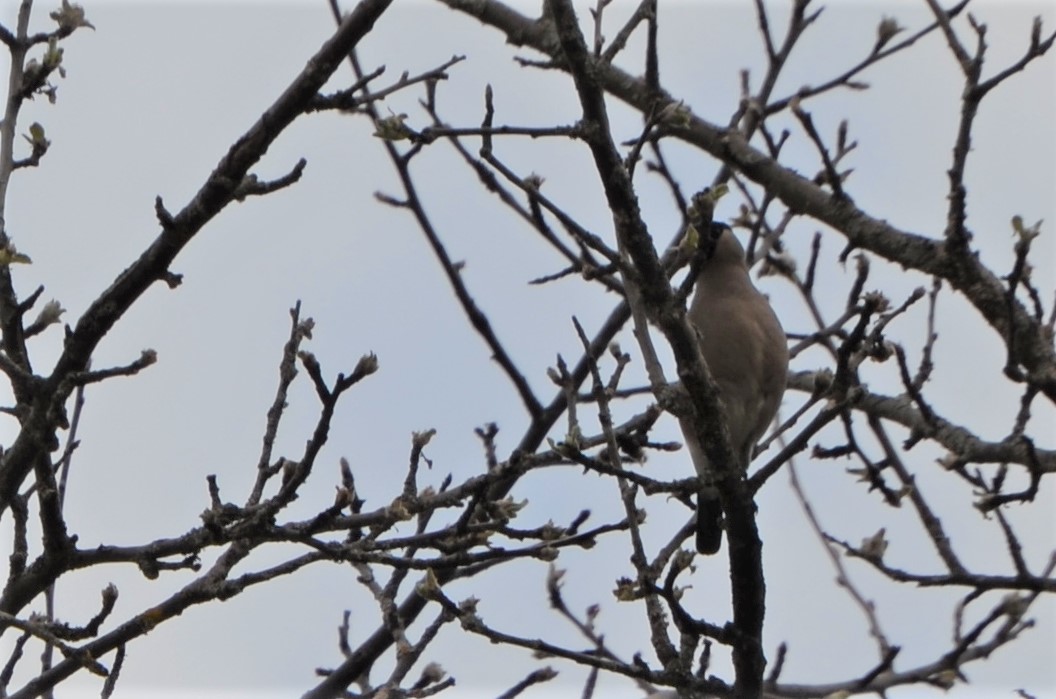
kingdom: Animalia
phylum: Chordata
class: Aves
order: Passeriformes
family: Fringillidae
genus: Pyrrhula
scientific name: Pyrrhula pyrrhula
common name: Eurasian bullfinch
